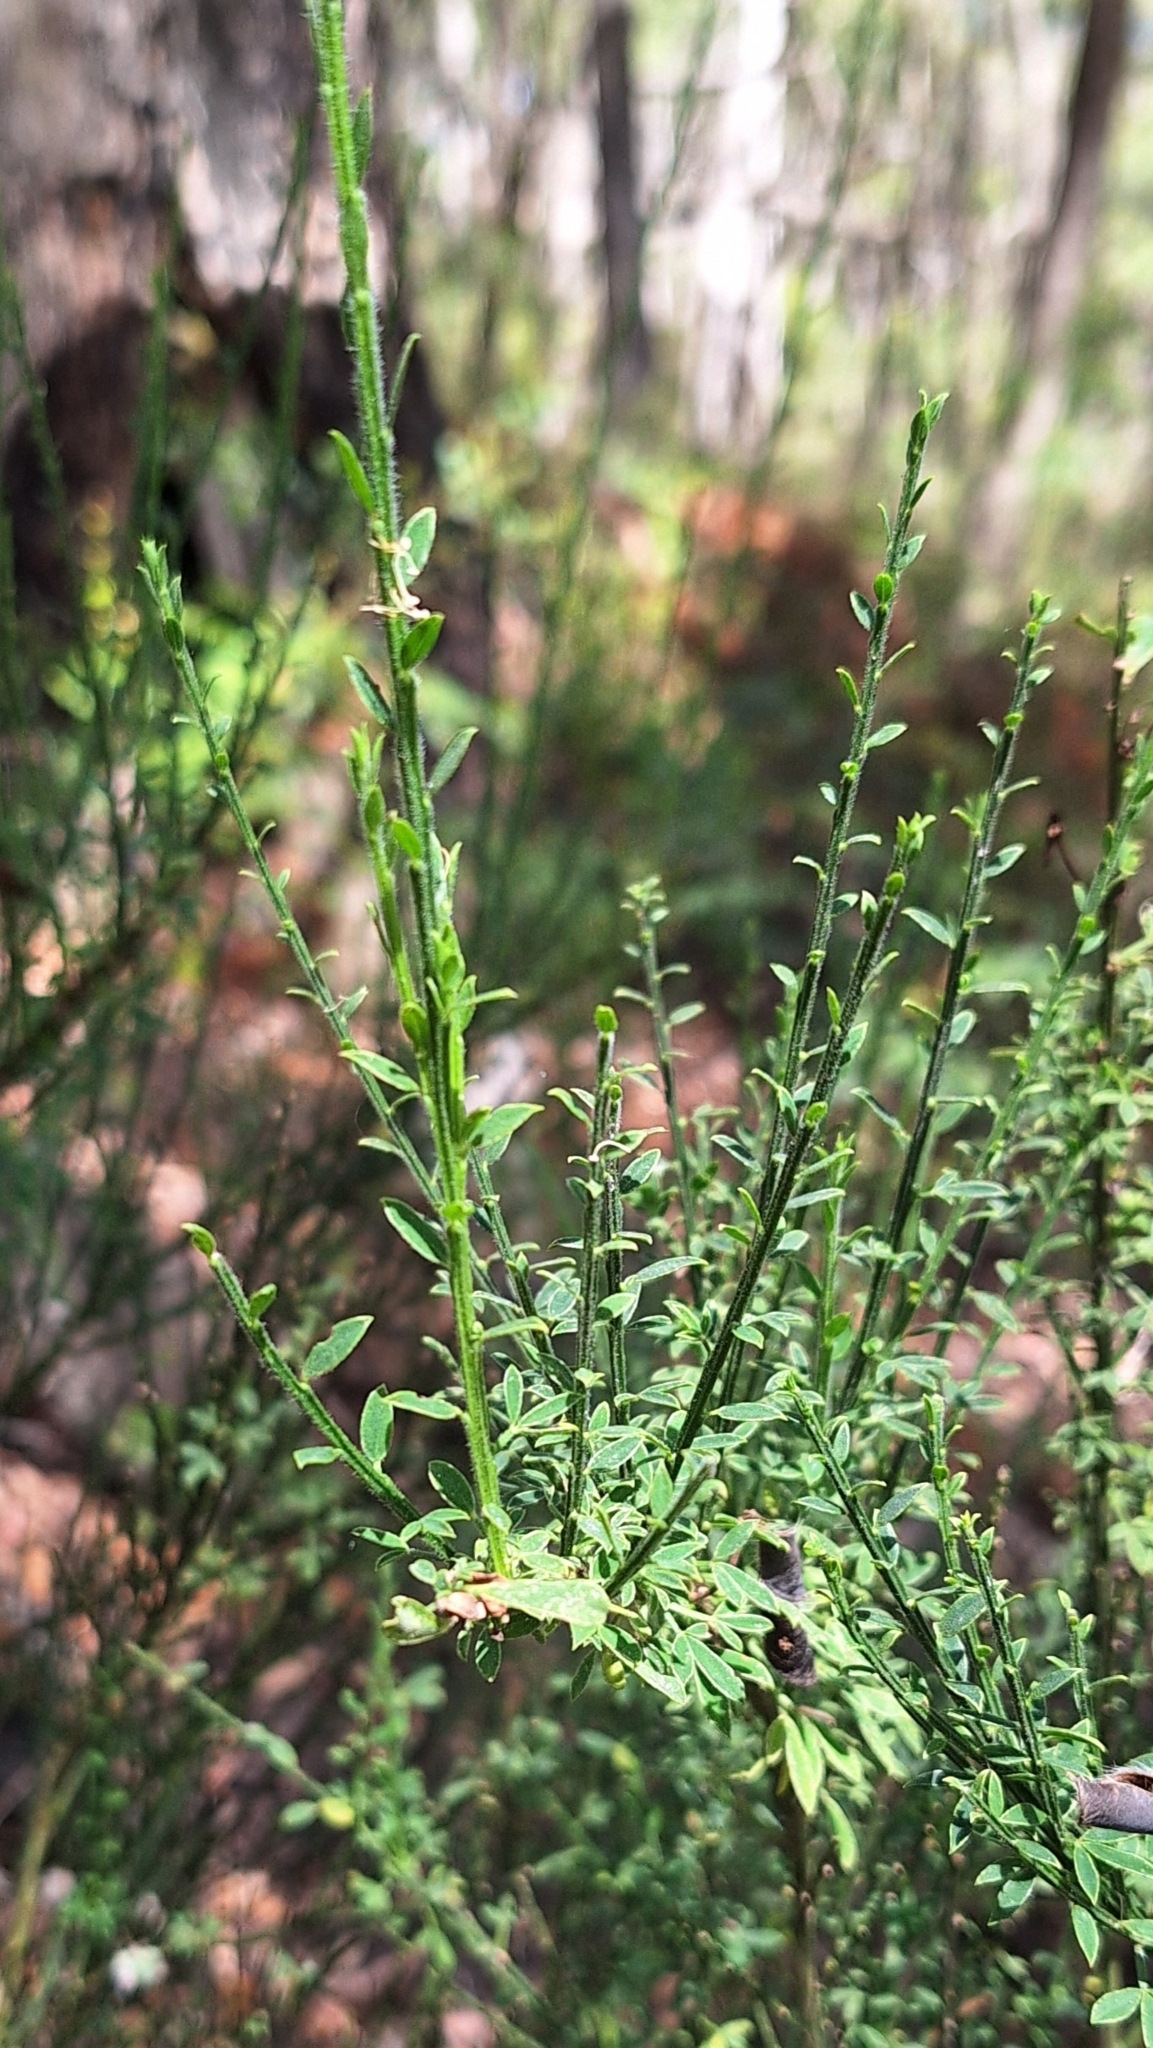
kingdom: Plantae
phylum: Tracheophyta
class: Magnoliopsida
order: Fabales
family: Fabaceae
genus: Cytisus
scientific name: Cytisus scoparius
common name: Scotch broom
